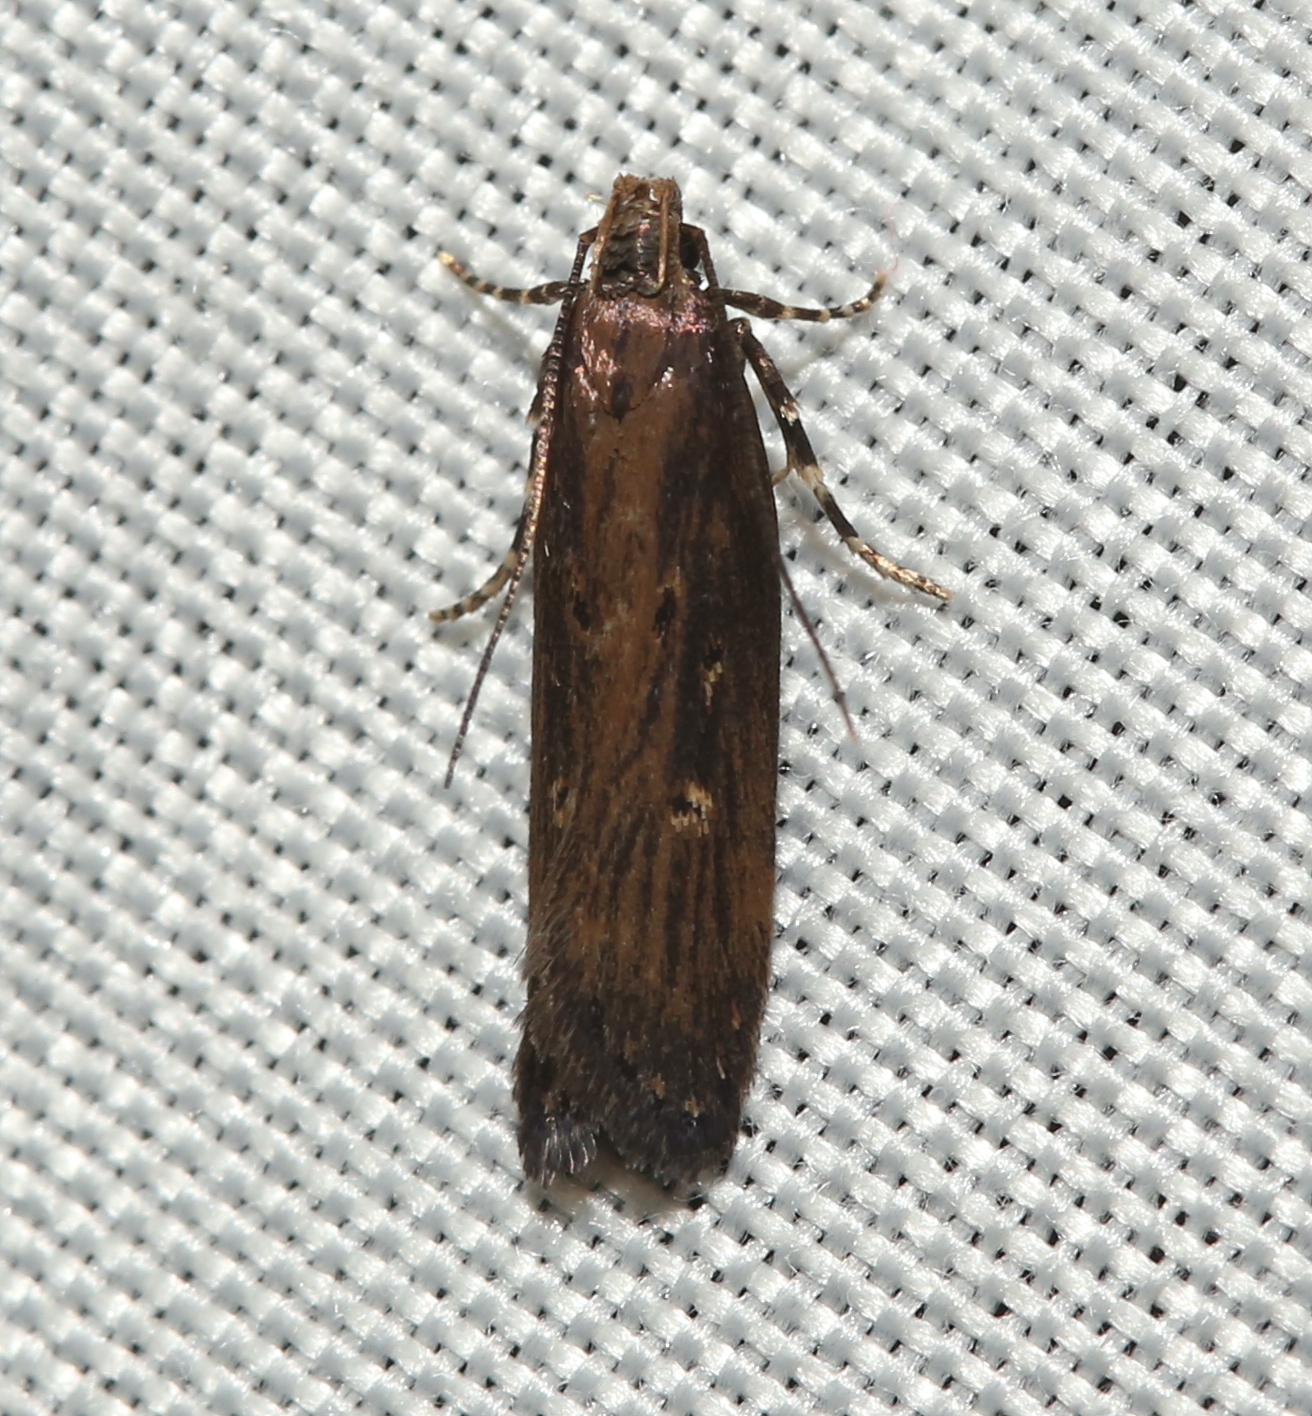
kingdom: Animalia
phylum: Arthropoda
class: Insecta
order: Lepidoptera
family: Gelechiidae
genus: Chionodes
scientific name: Chionodes discoocellella
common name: Eye-ringed chionodes moth
